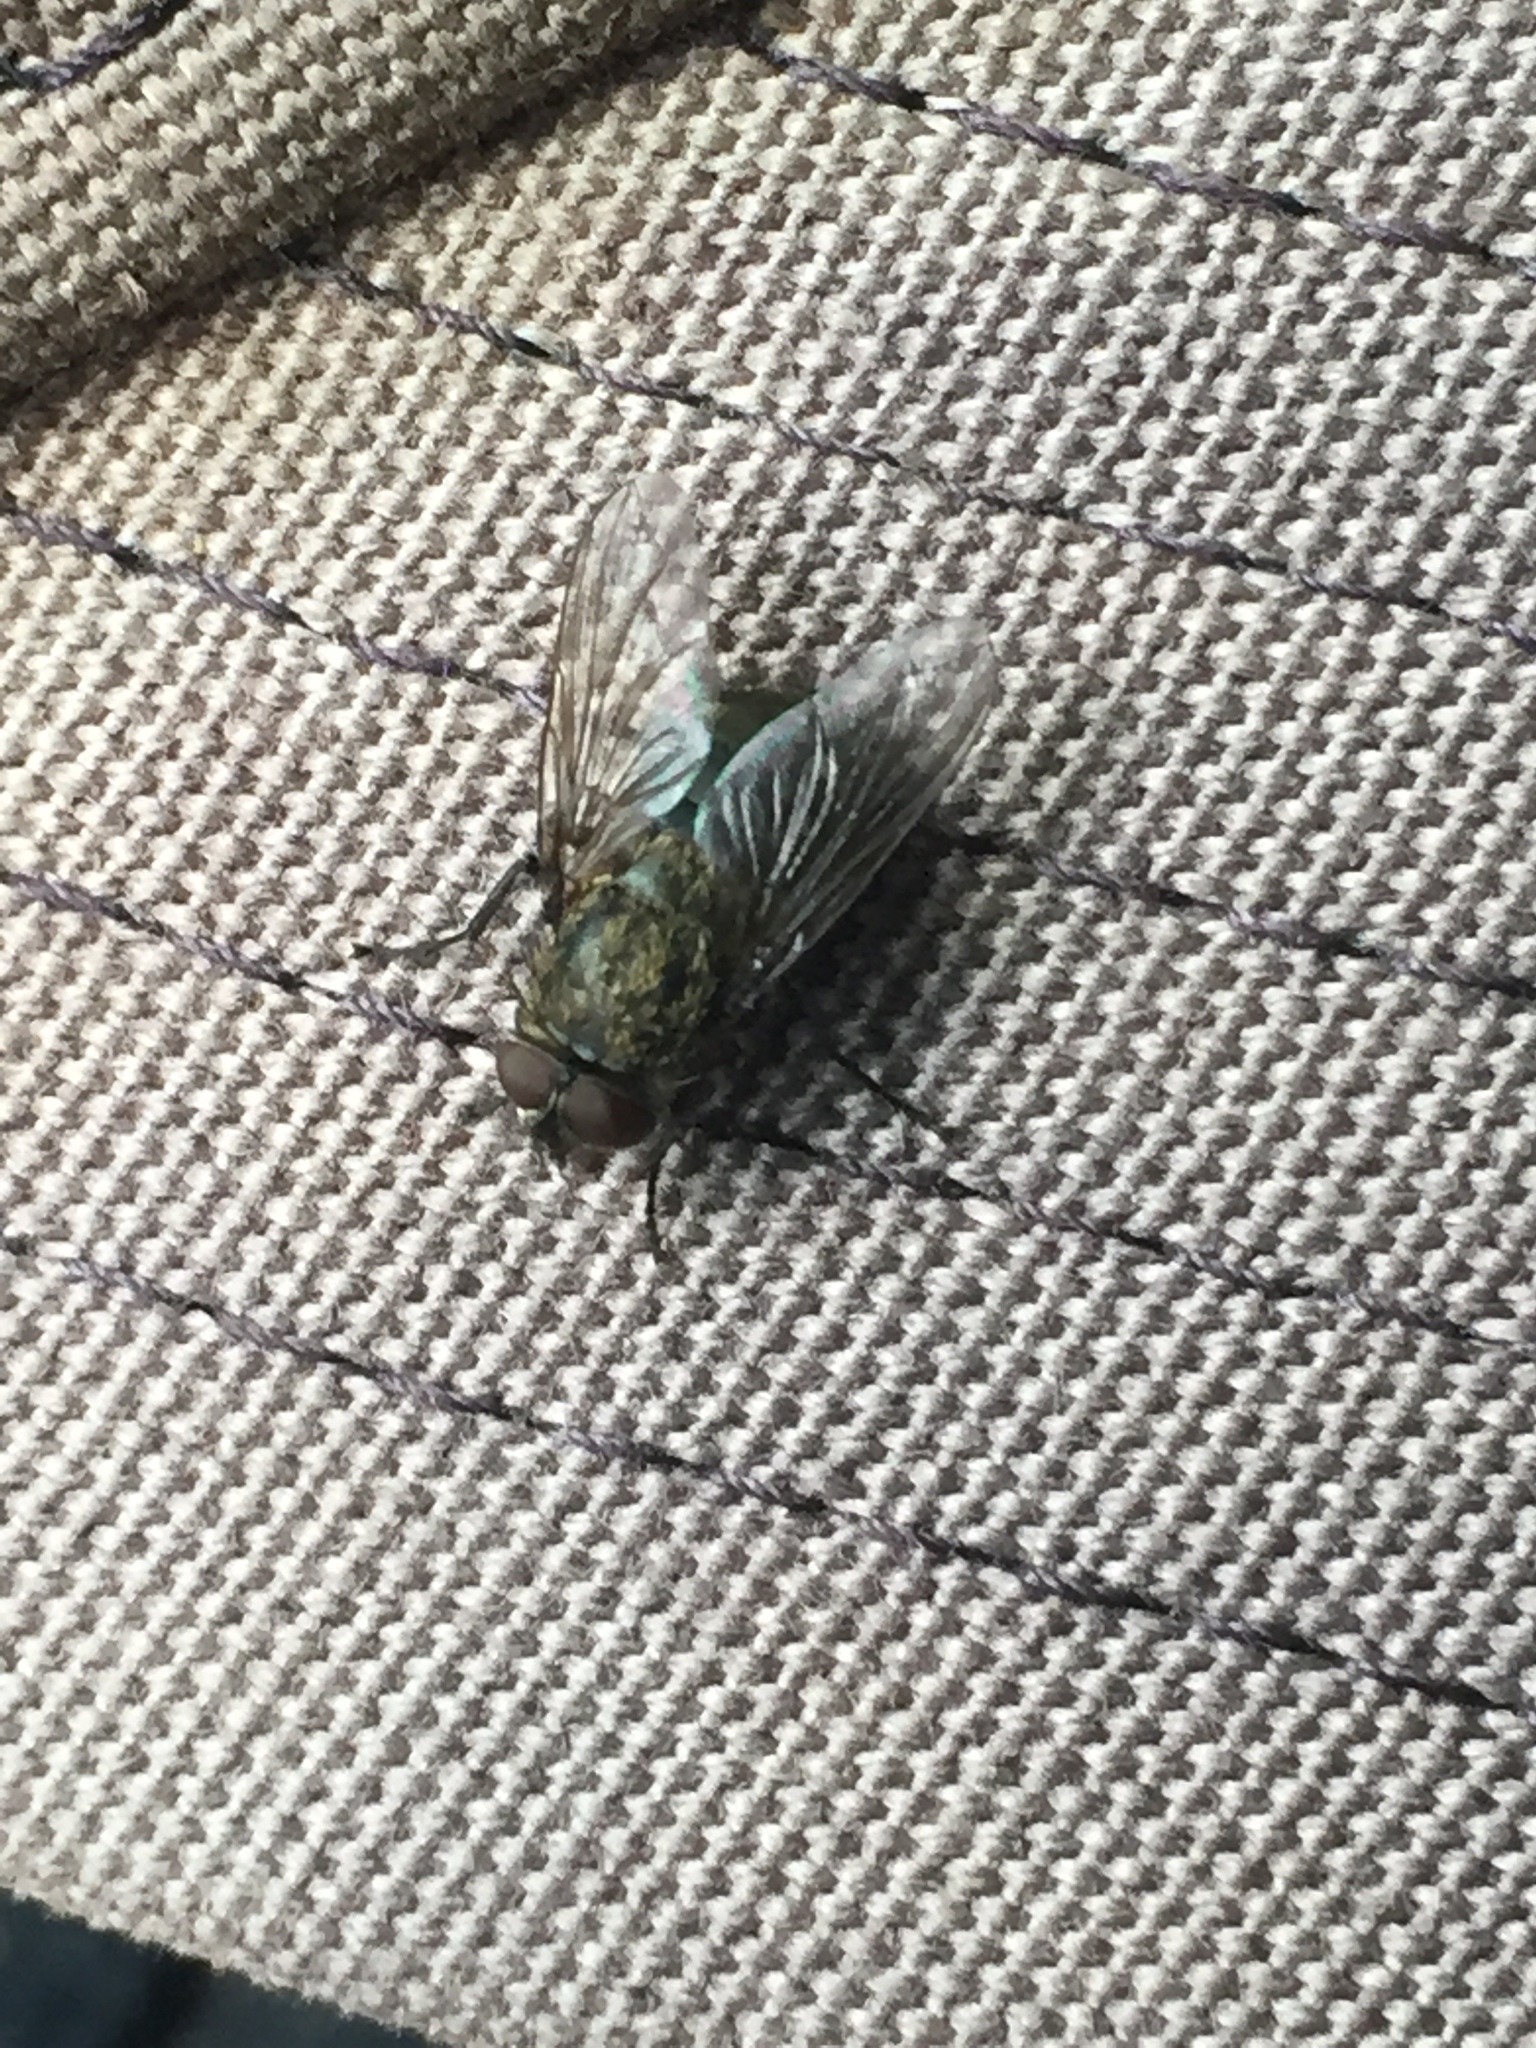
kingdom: Animalia
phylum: Arthropoda
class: Insecta
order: Diptera
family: Polleniidae
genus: Pollenia
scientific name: Pollenia
